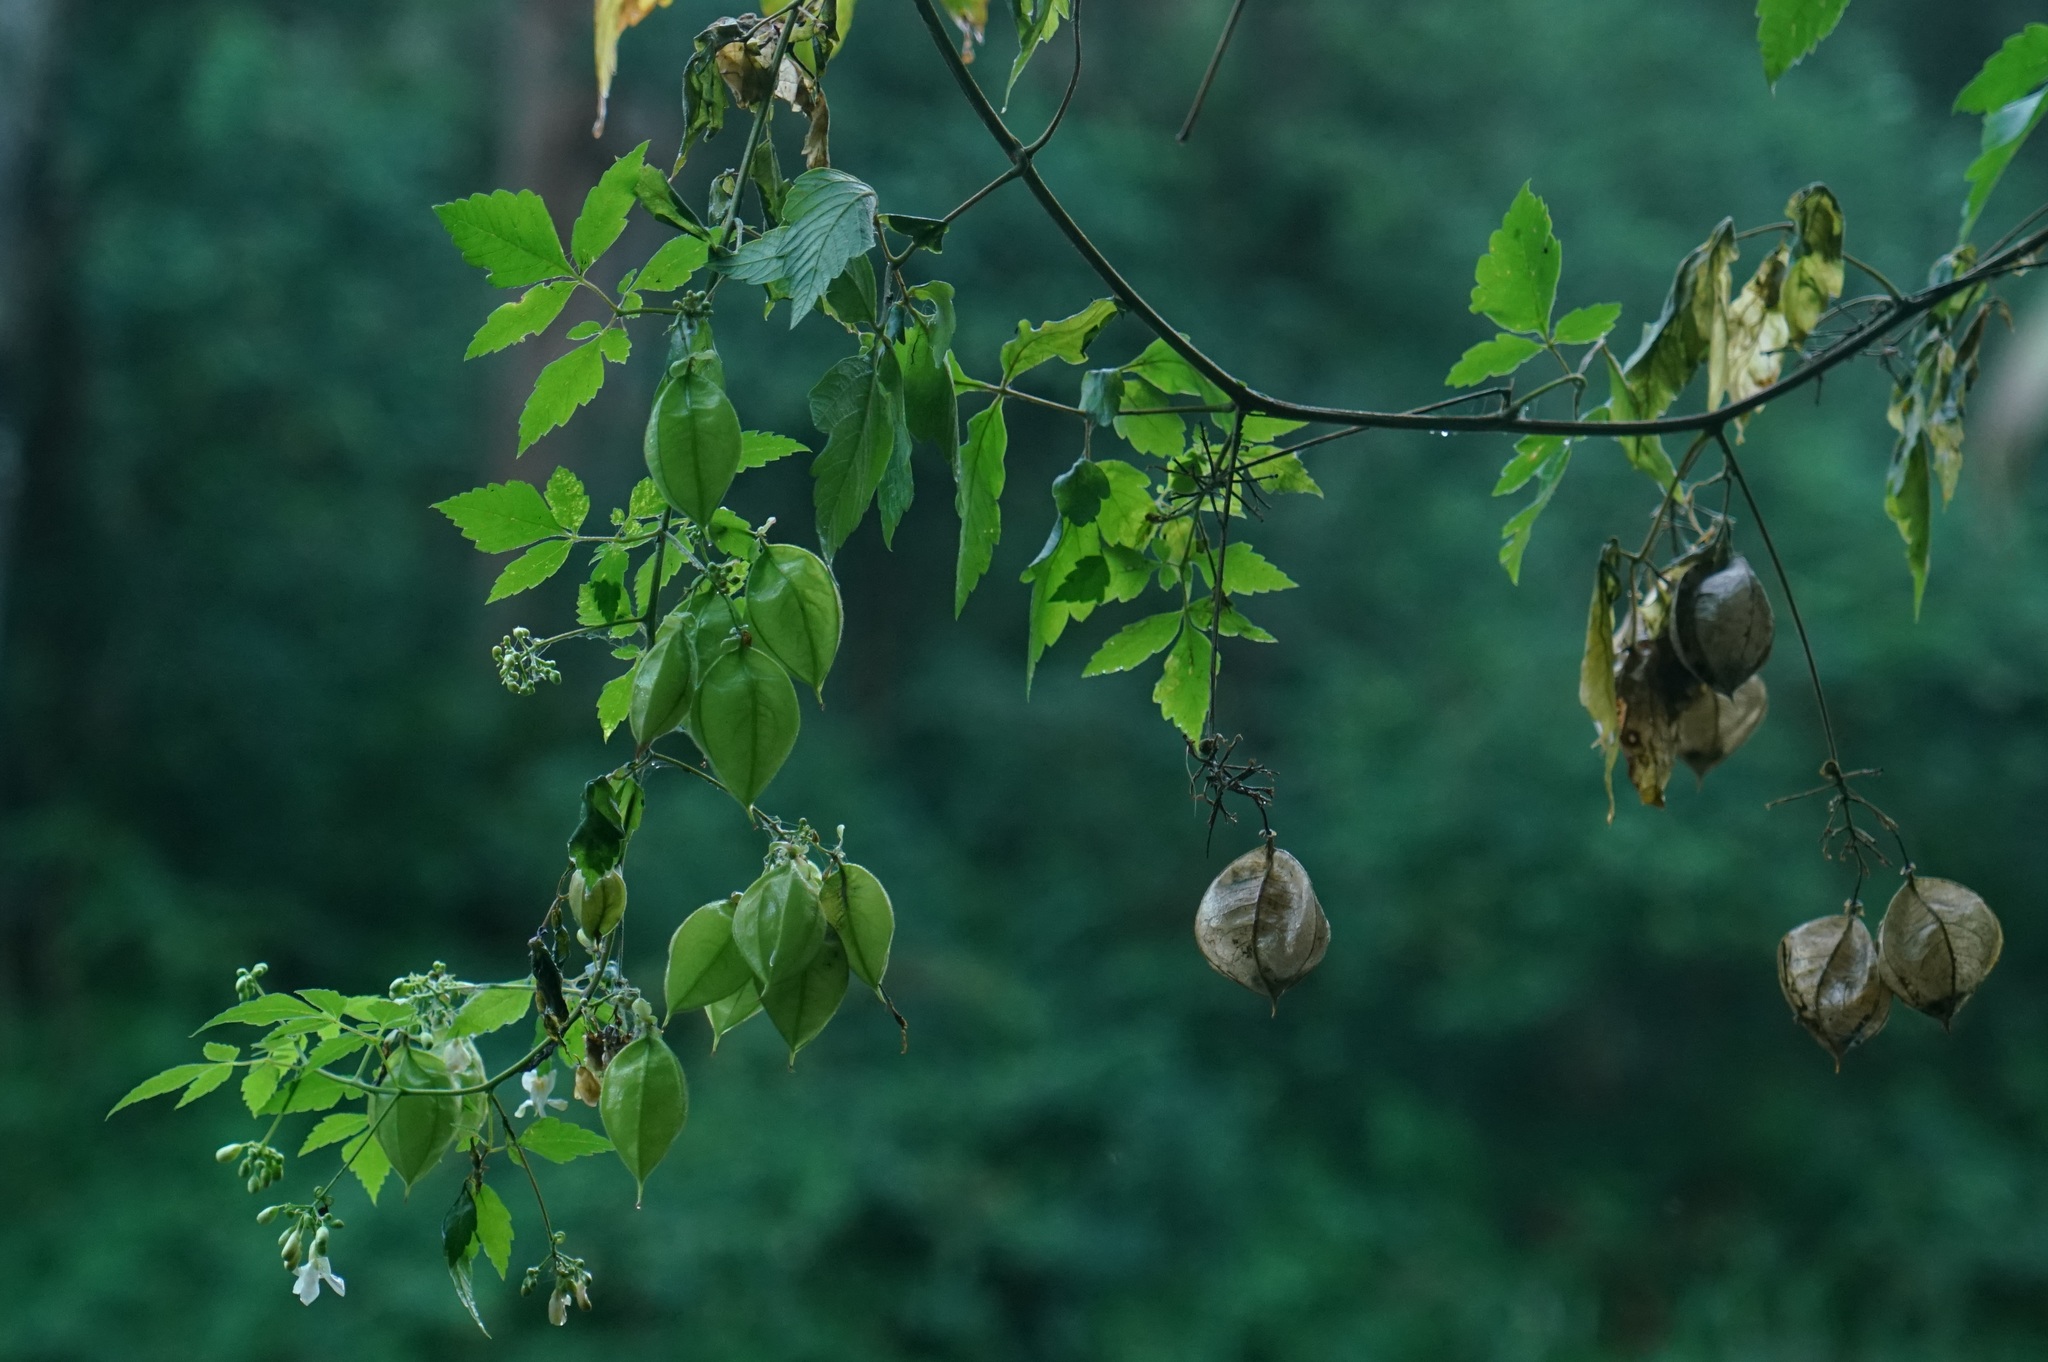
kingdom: Plantae
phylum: Tracheophyta
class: Magnoliopsida
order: Sapindales
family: Sapindaceae
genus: Cardiospermum
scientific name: Cardiospermum grandiflorum
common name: Balloon vine
